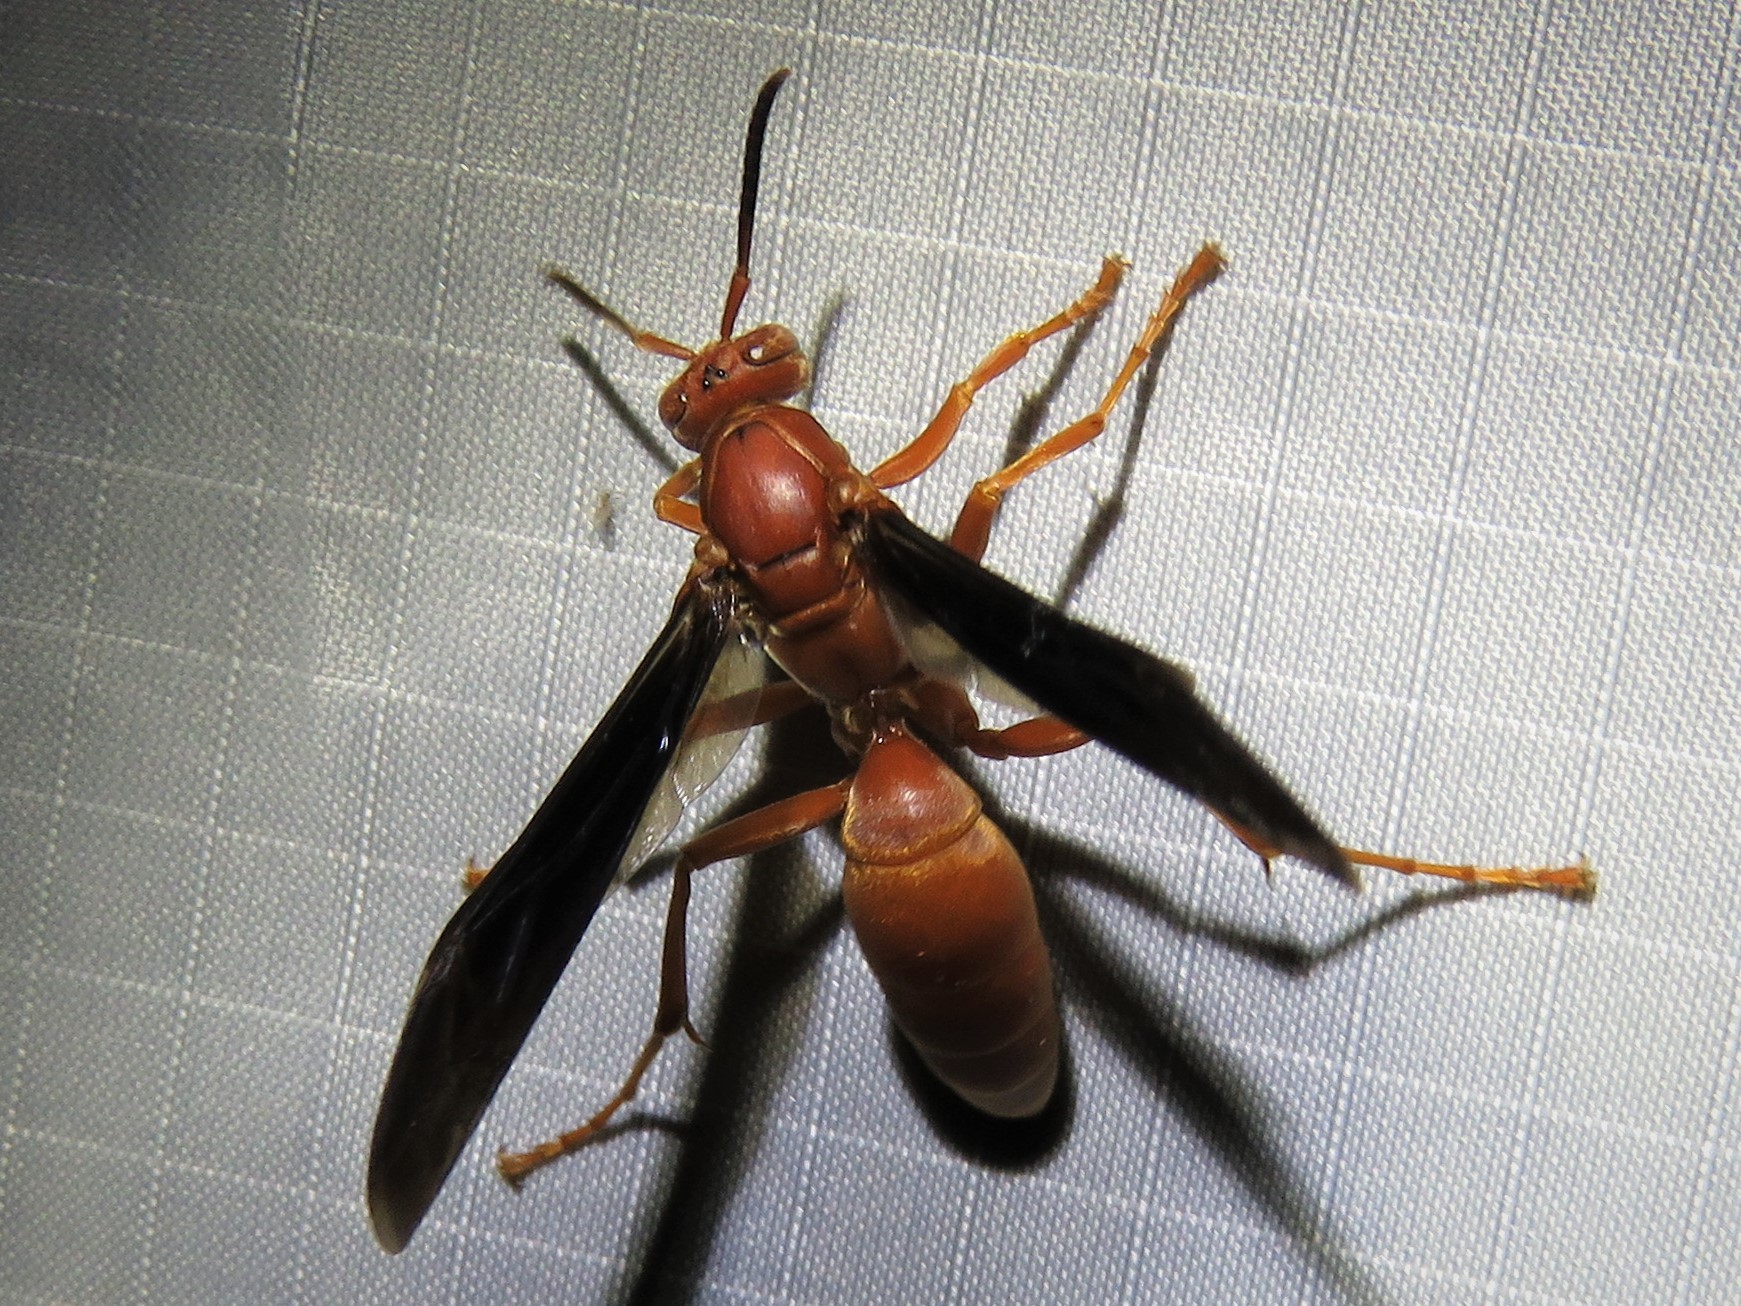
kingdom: Animalia
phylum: Arthropoda
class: Insecta
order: Hymenoptera
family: Eumenidae
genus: Polistes
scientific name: Polistes carolina
